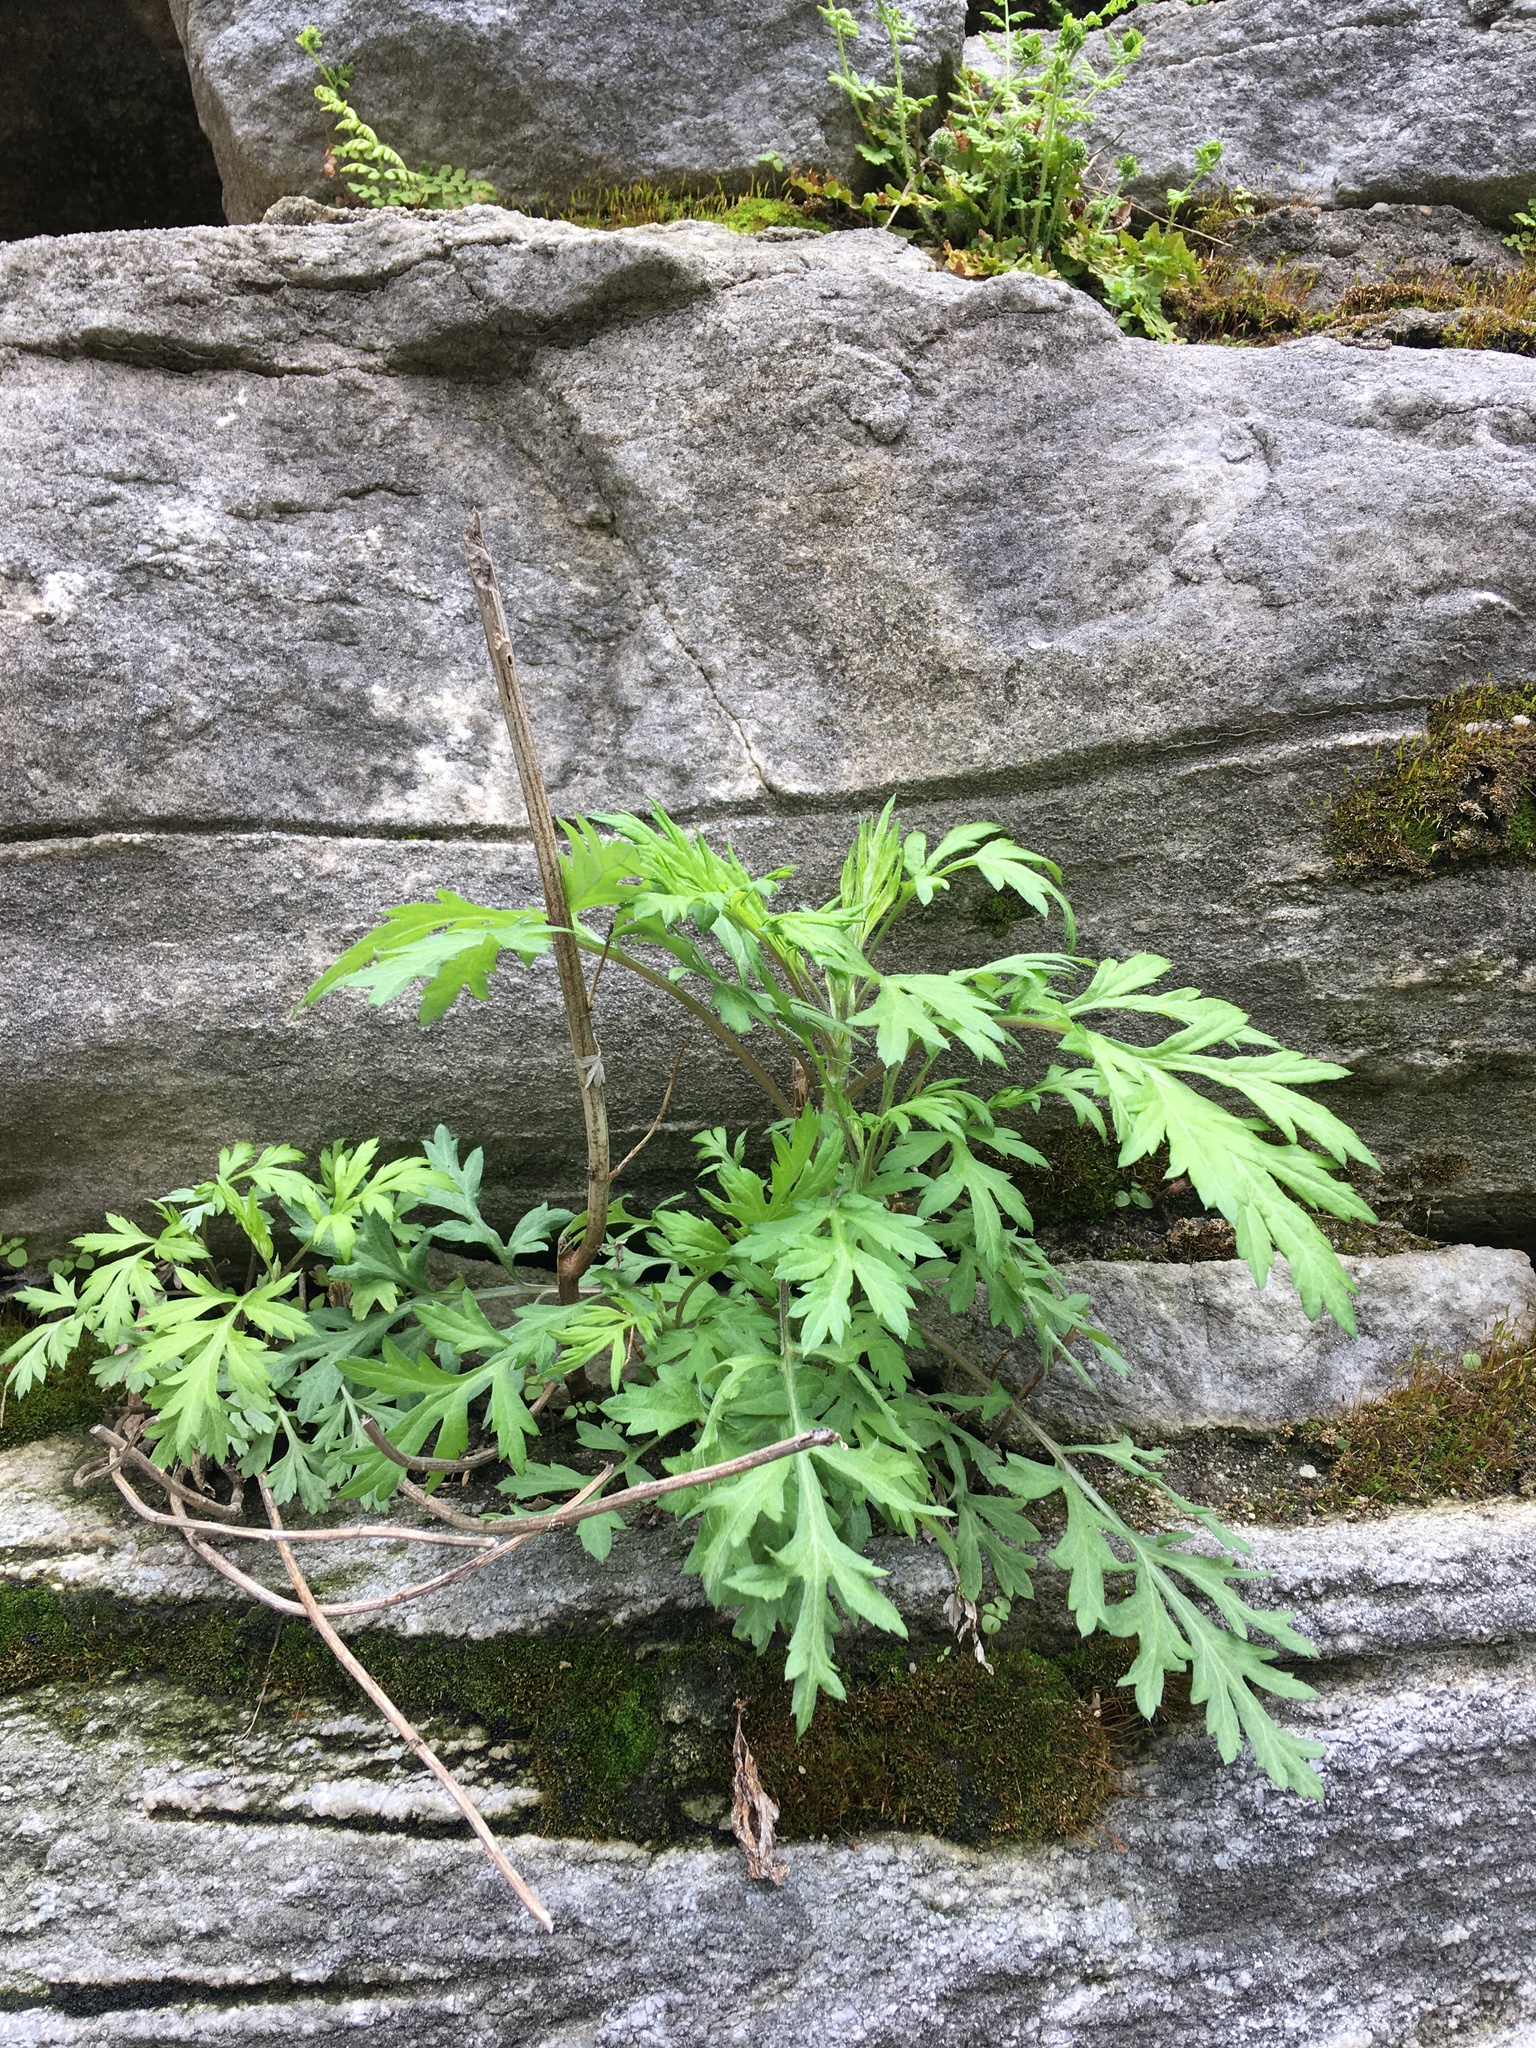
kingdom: Plantae
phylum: Tracheophyta
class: Magnoliopsida
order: Asterales
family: Asteraceae
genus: Artemisia
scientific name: Artemisia vulgaris
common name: Mugwort
